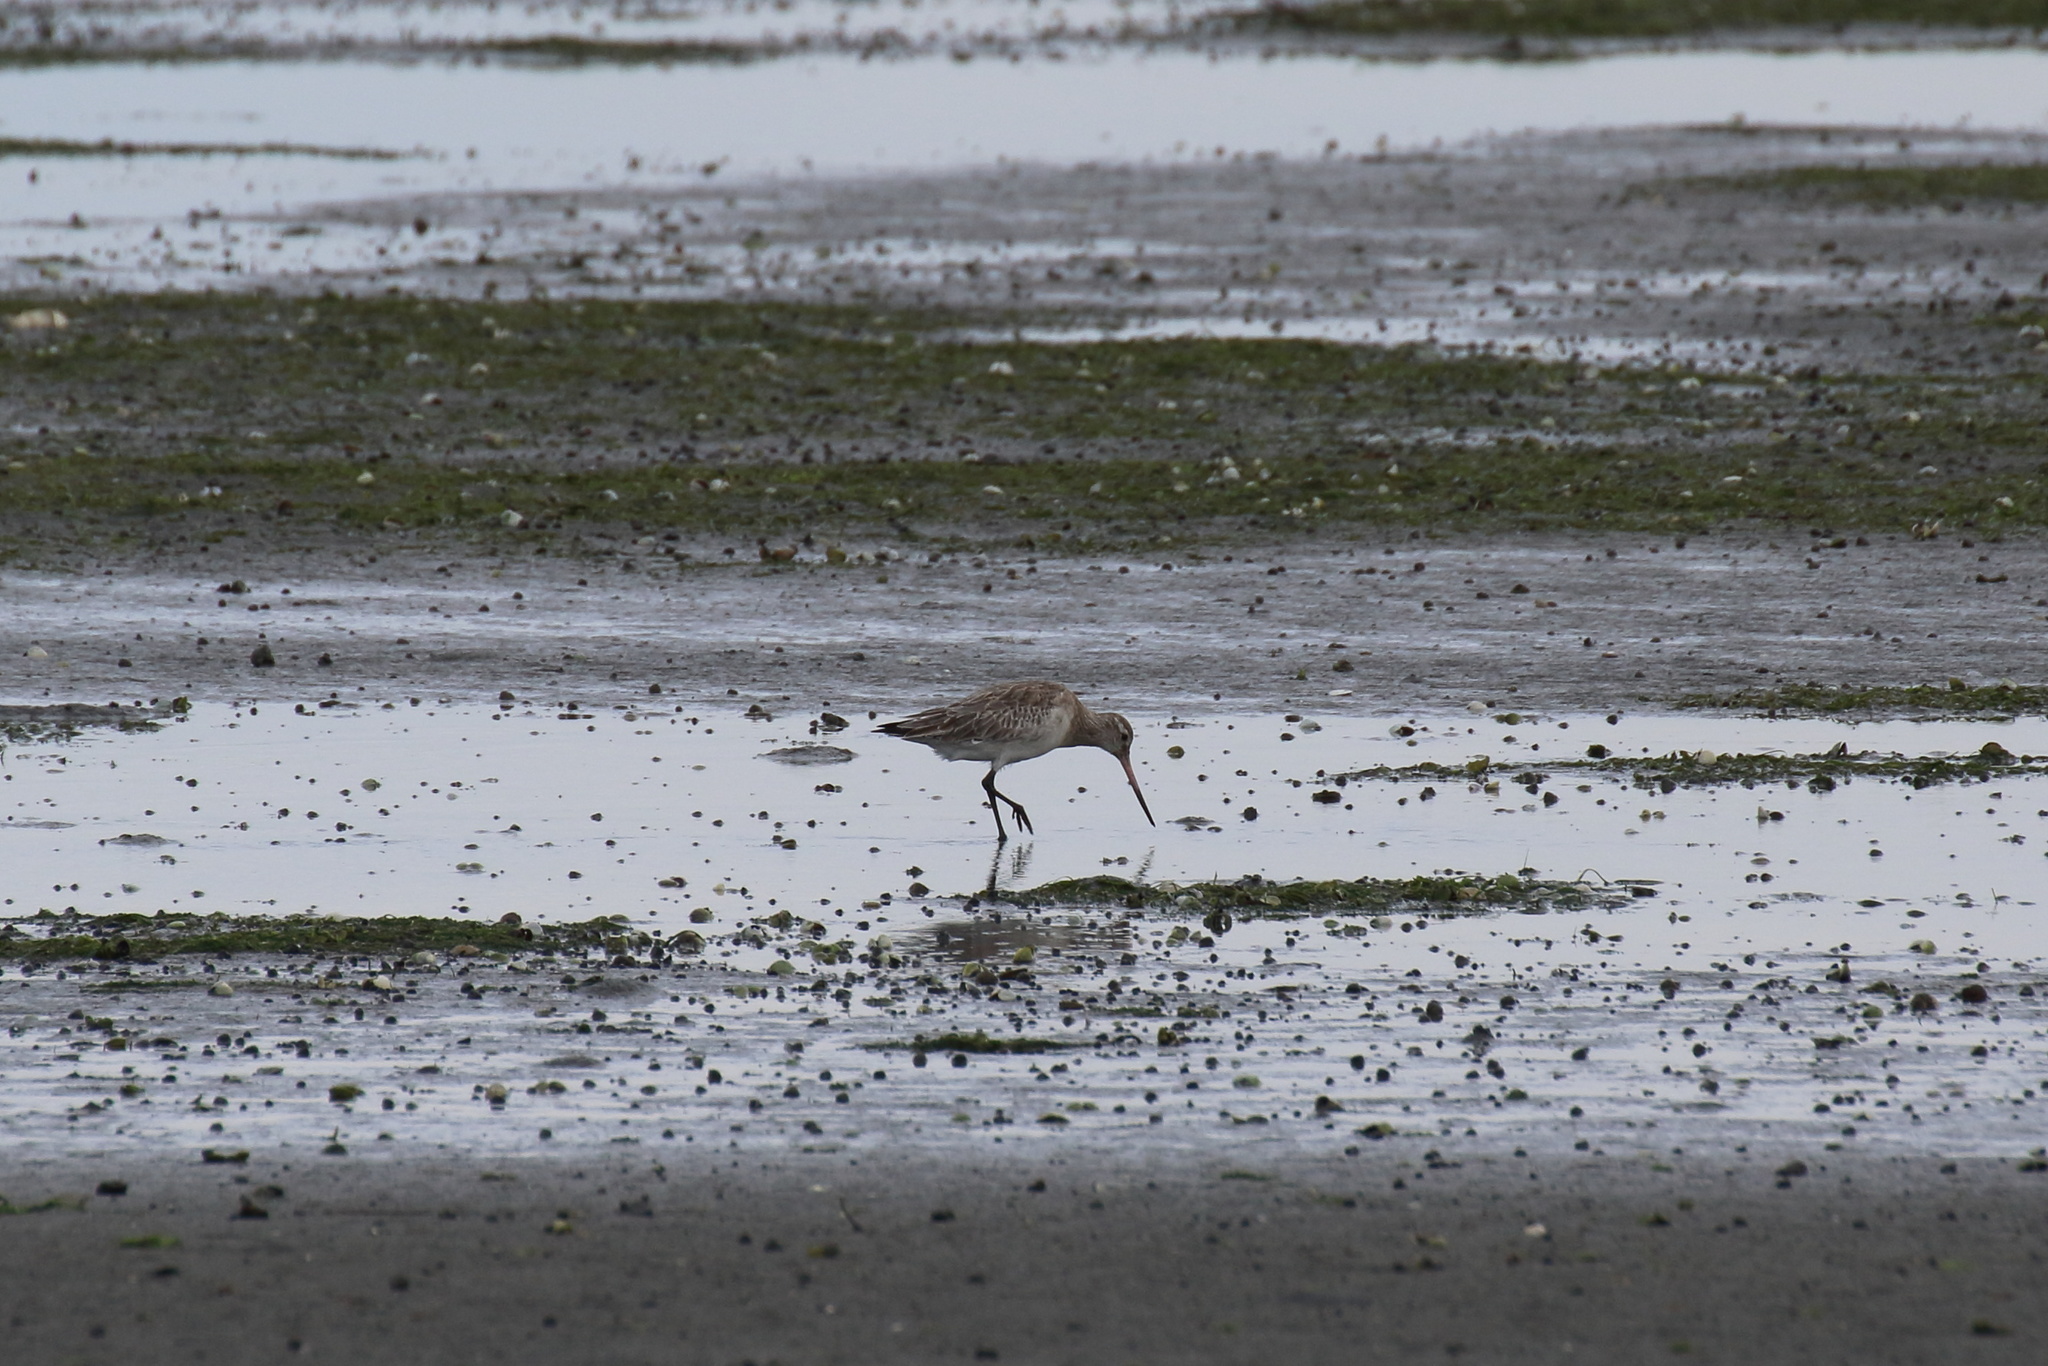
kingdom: Animalia
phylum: Chordata
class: Aves
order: Charadriiformes
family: Scolopacidae
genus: Limosa
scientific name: Limosa lapponica
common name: Bar-tailed godwit
